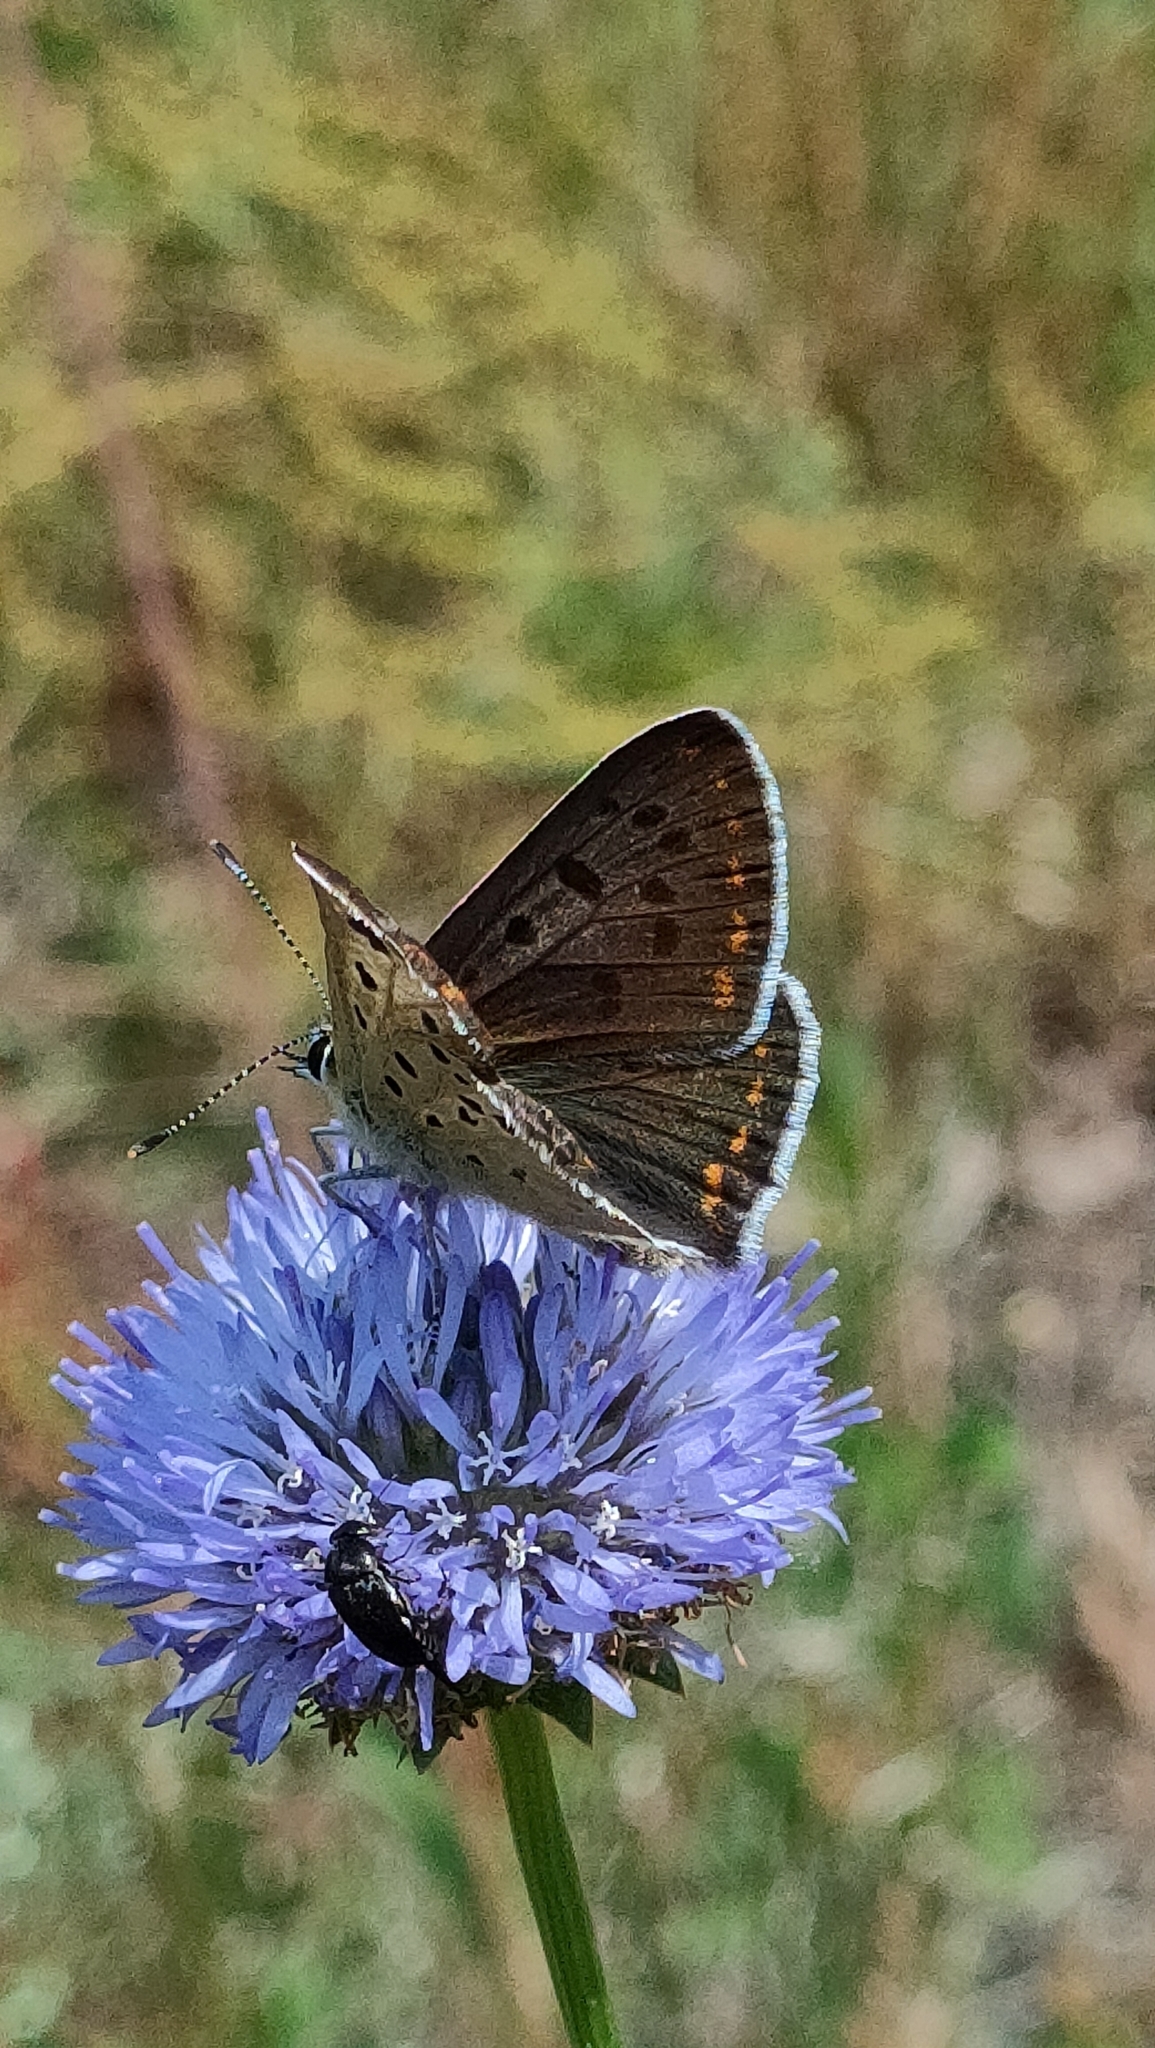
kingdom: Animalia
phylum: Arthropoda
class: Insecta
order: Lepidoptera
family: Lycaenidae
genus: Loweia
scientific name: Loweia tityrus
